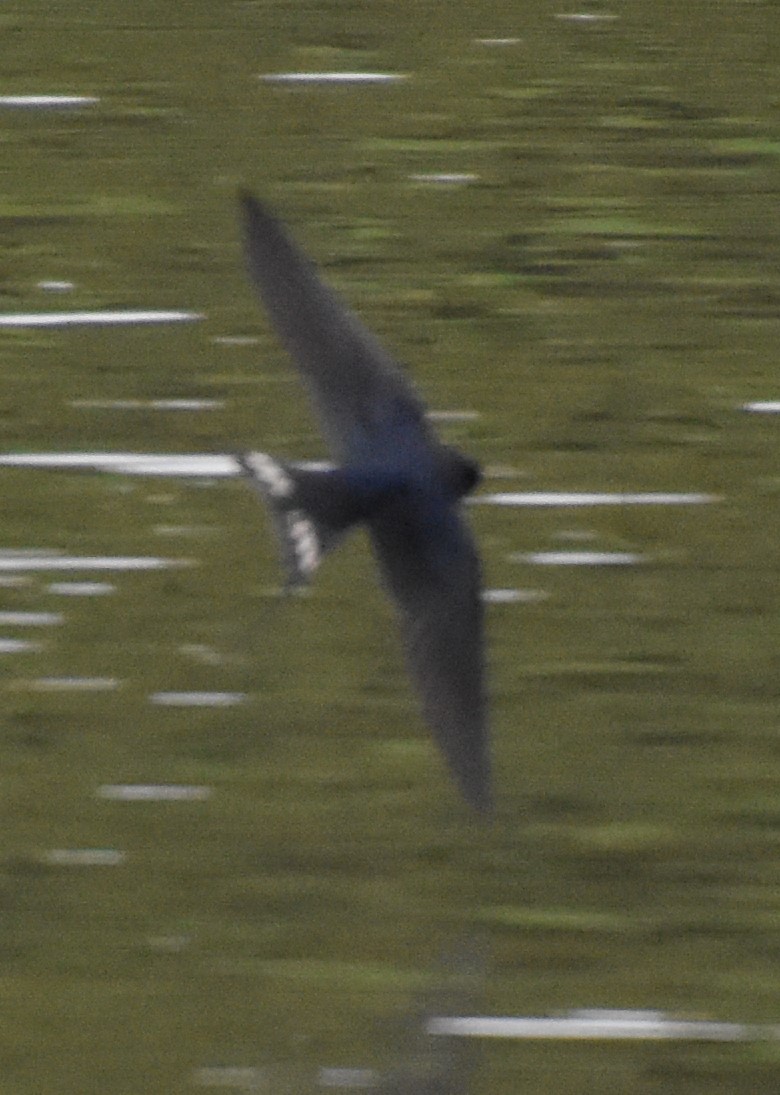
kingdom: Animalia
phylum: Chordata
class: Aves
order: Passeriformes
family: Hirundinidae
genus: Hirundo
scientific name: Hirundo rustica
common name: Barn swallow
